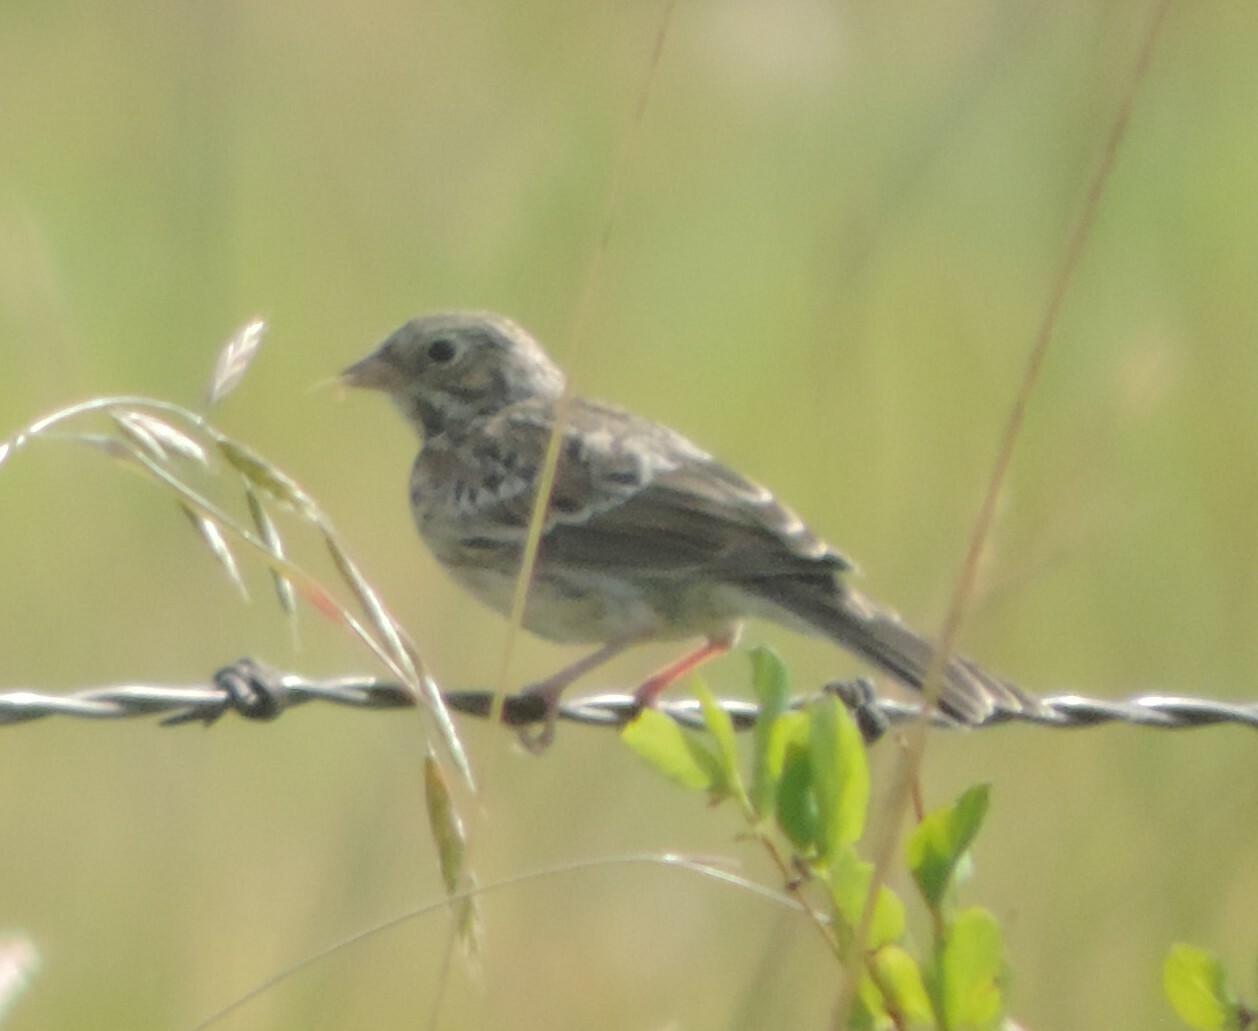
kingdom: Animalia
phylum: Chordata
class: Aves
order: Passeriformes
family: Passerellidae
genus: Pooecetes
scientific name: Pooecetes gramineus
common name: Vesper sparrow
